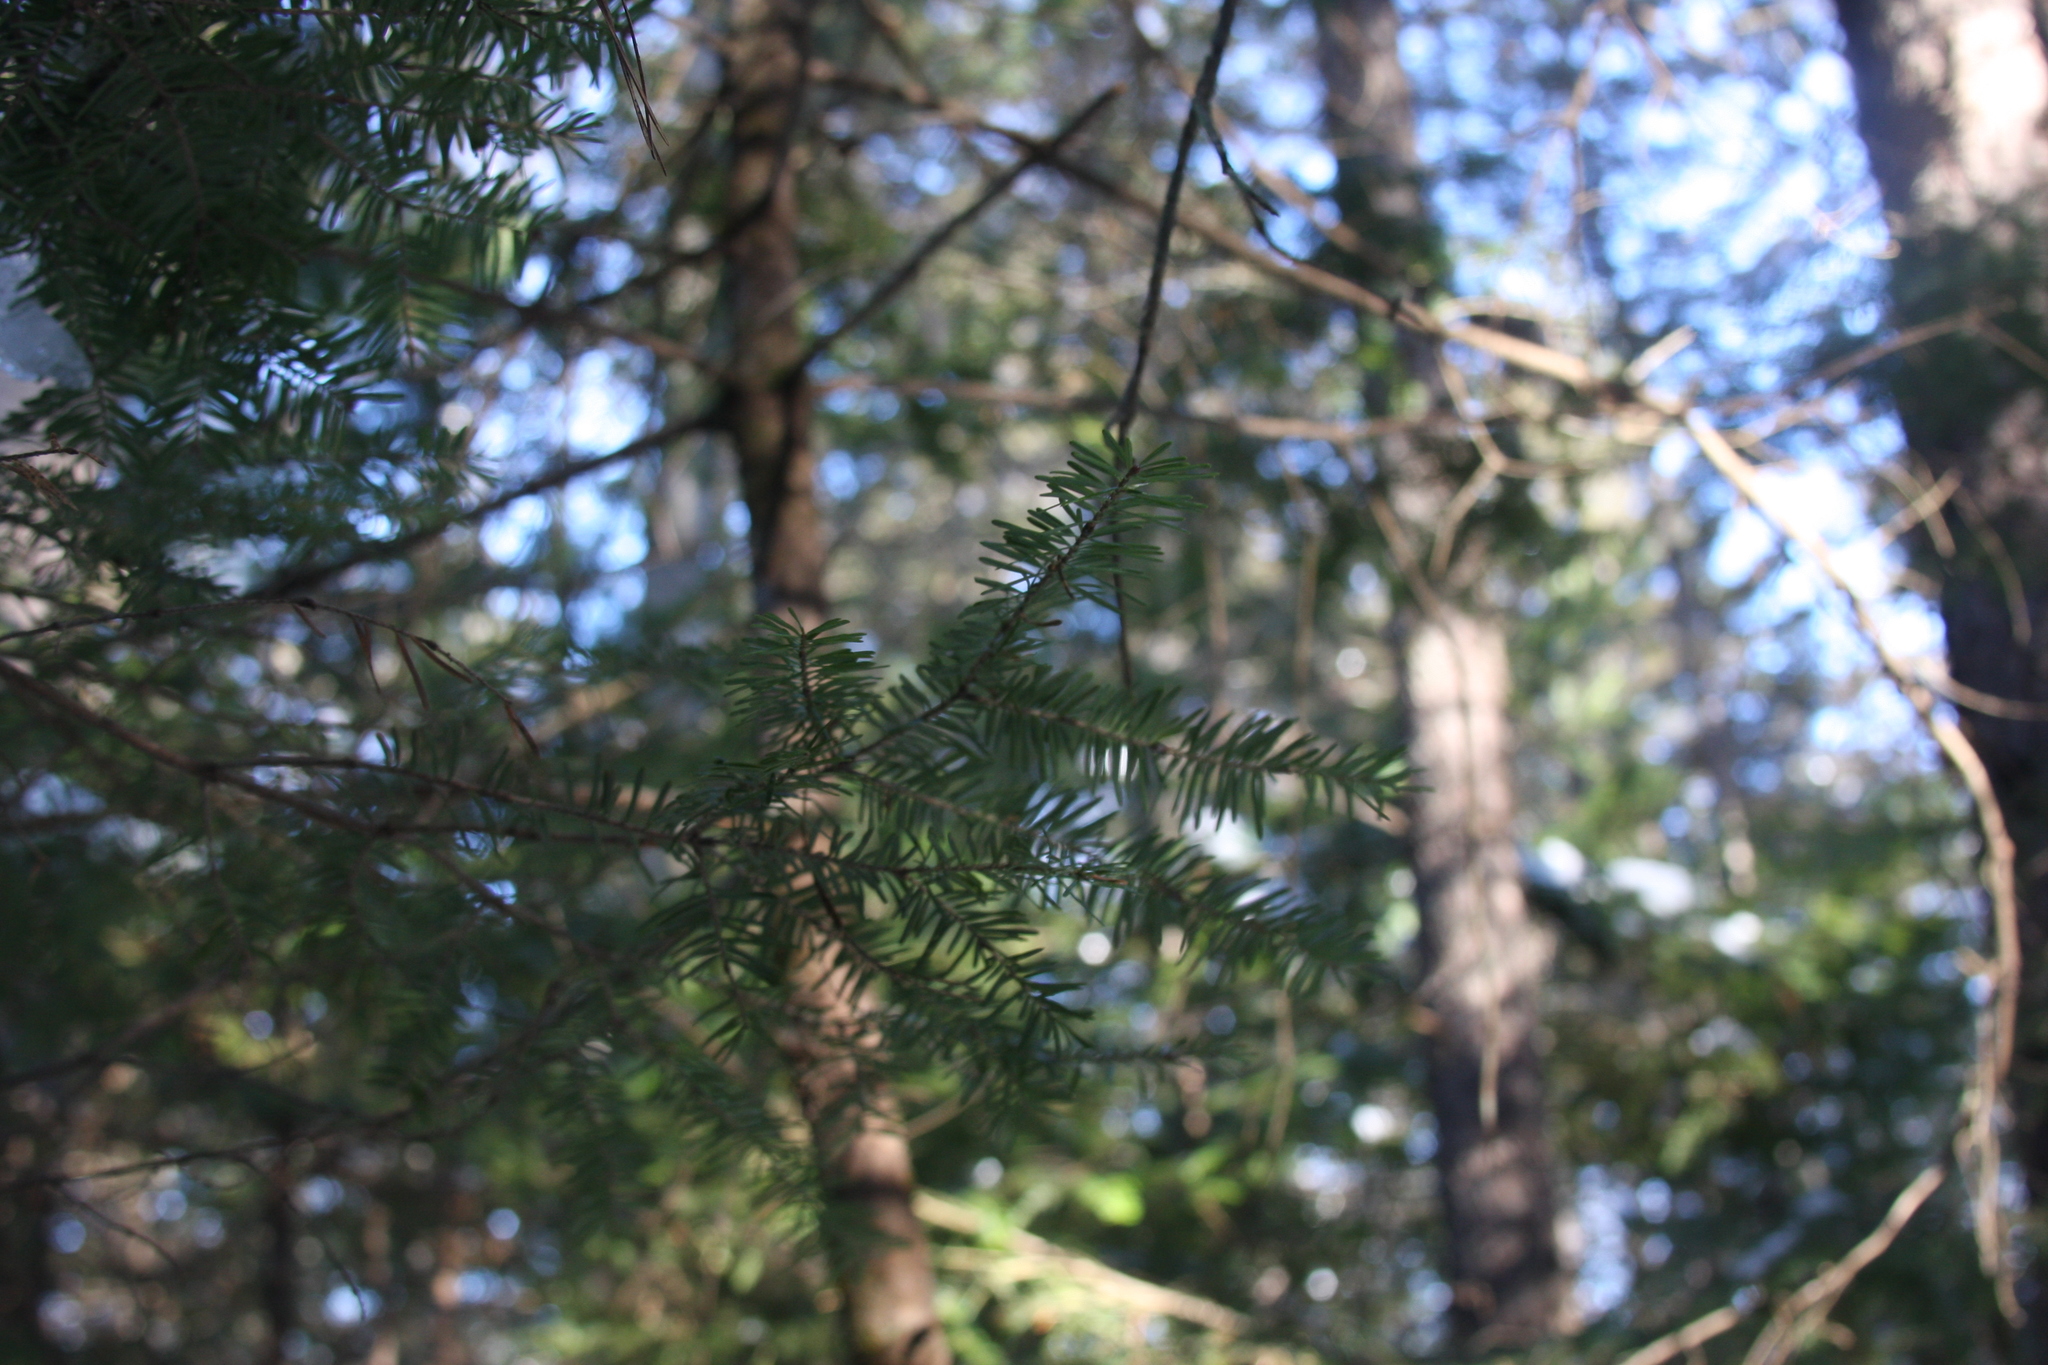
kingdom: Plantae
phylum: Tracheophyta
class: Pinopsida
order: Pinales
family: Pinaceae
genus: Abies
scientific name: Abies balsamea
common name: Balsam fir
